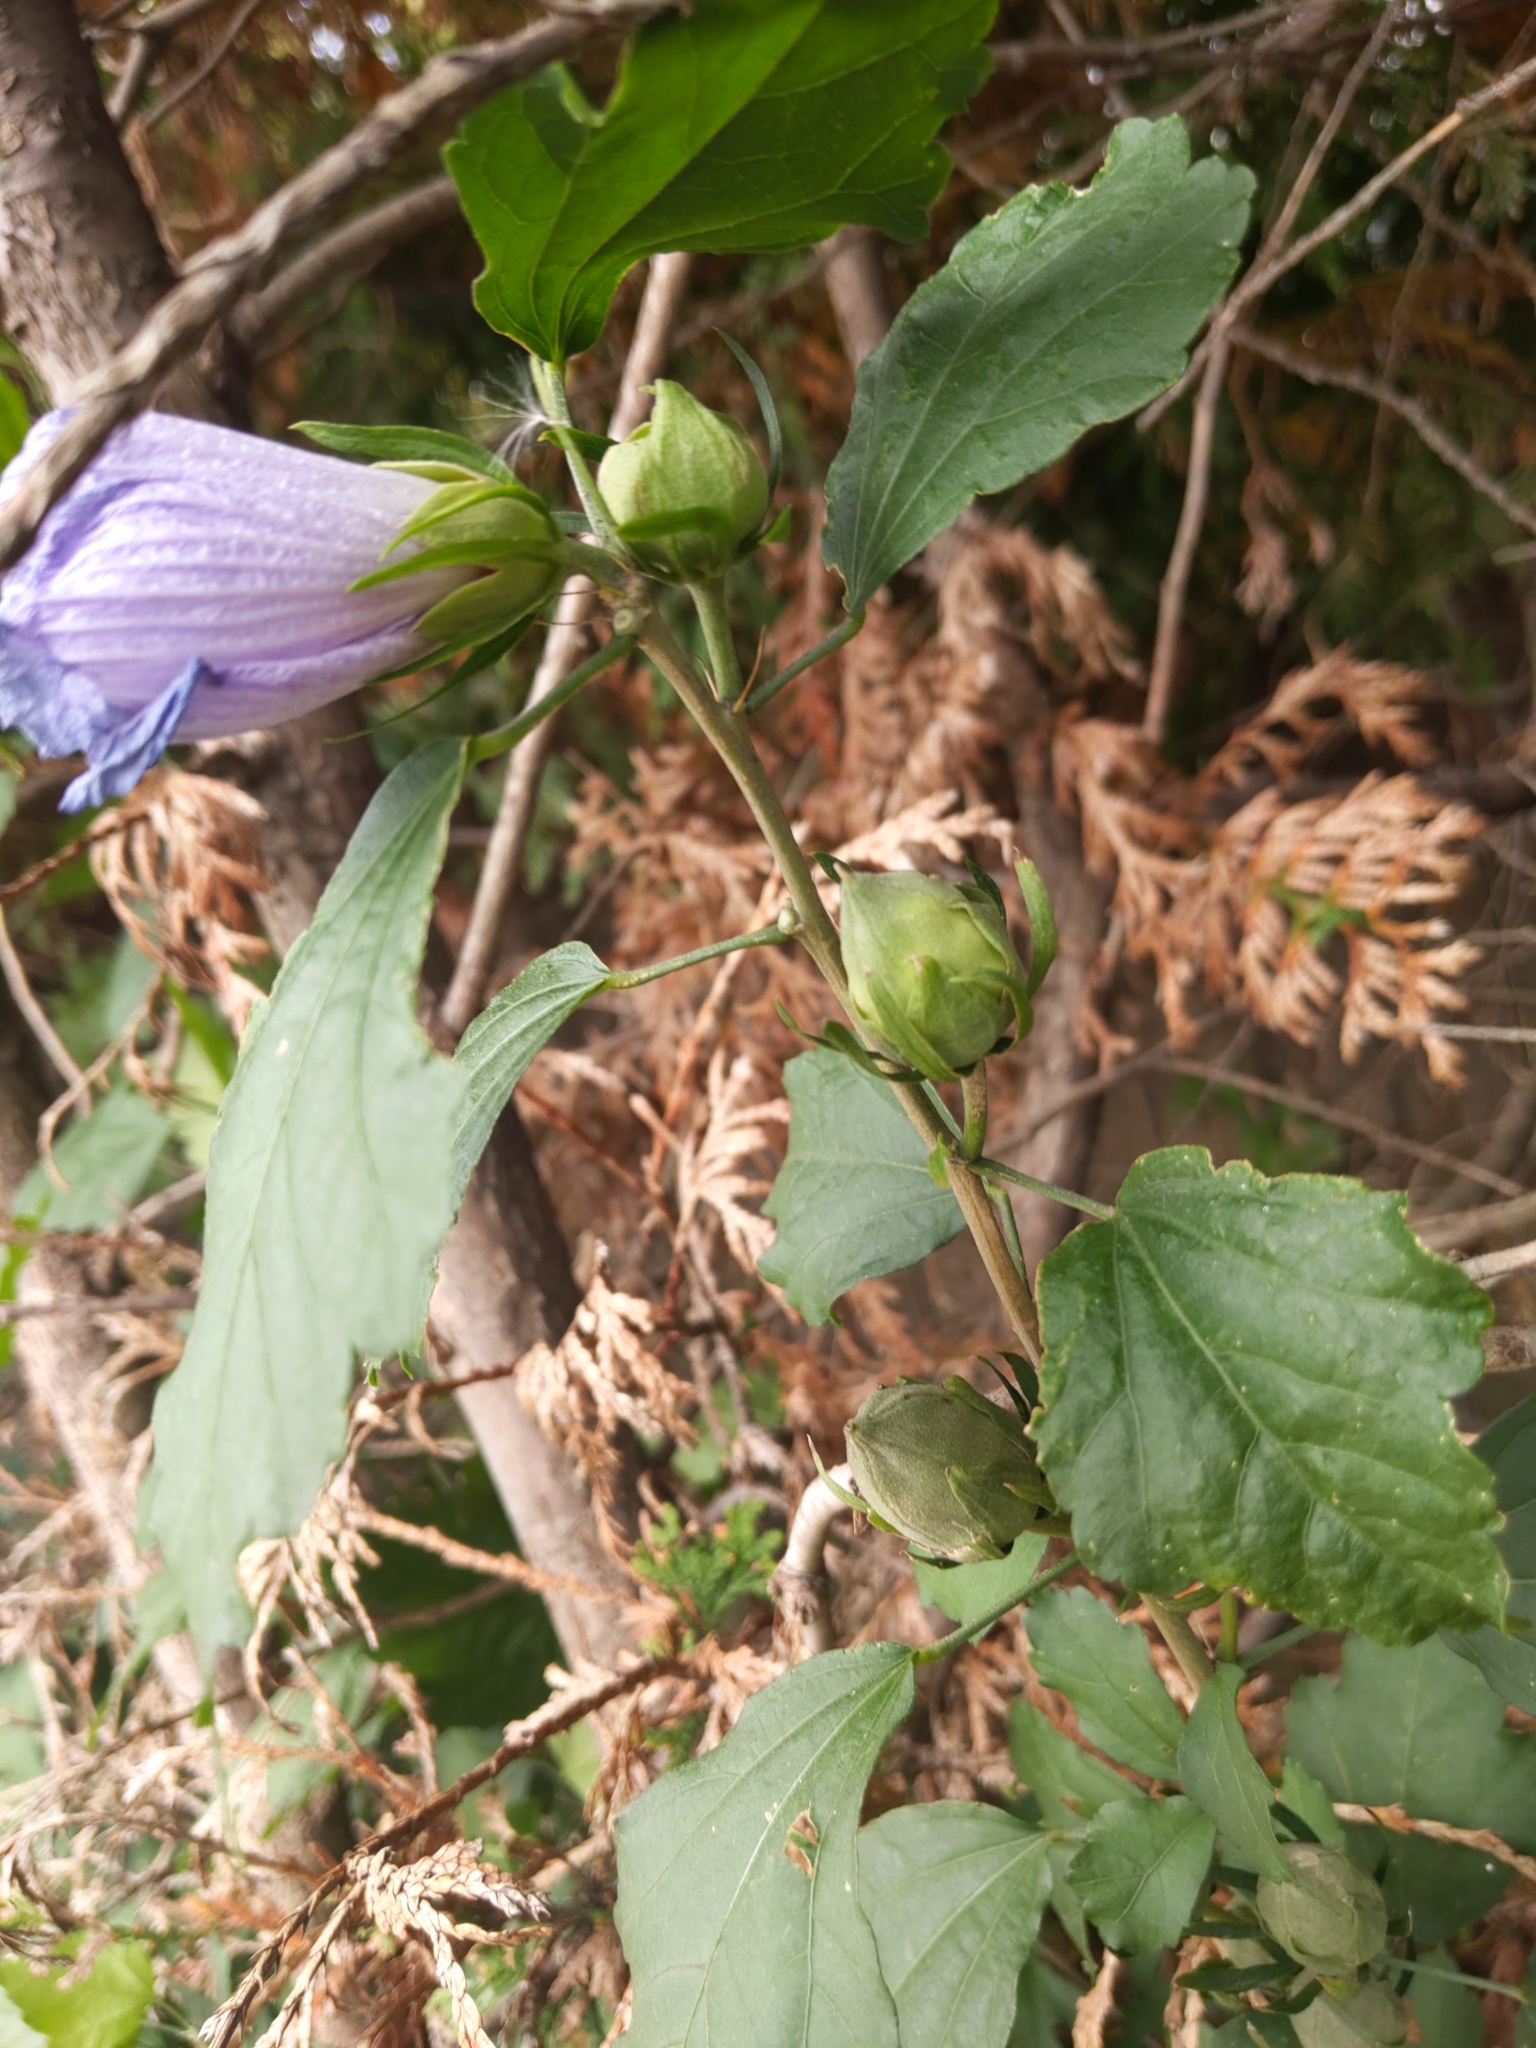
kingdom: Plantae
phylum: Tracheophyta
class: Magnoliopsida
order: Malvales
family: Malvaceae
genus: Hibiscus
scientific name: Hibiscus syriacus
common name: Syrian ketmia
